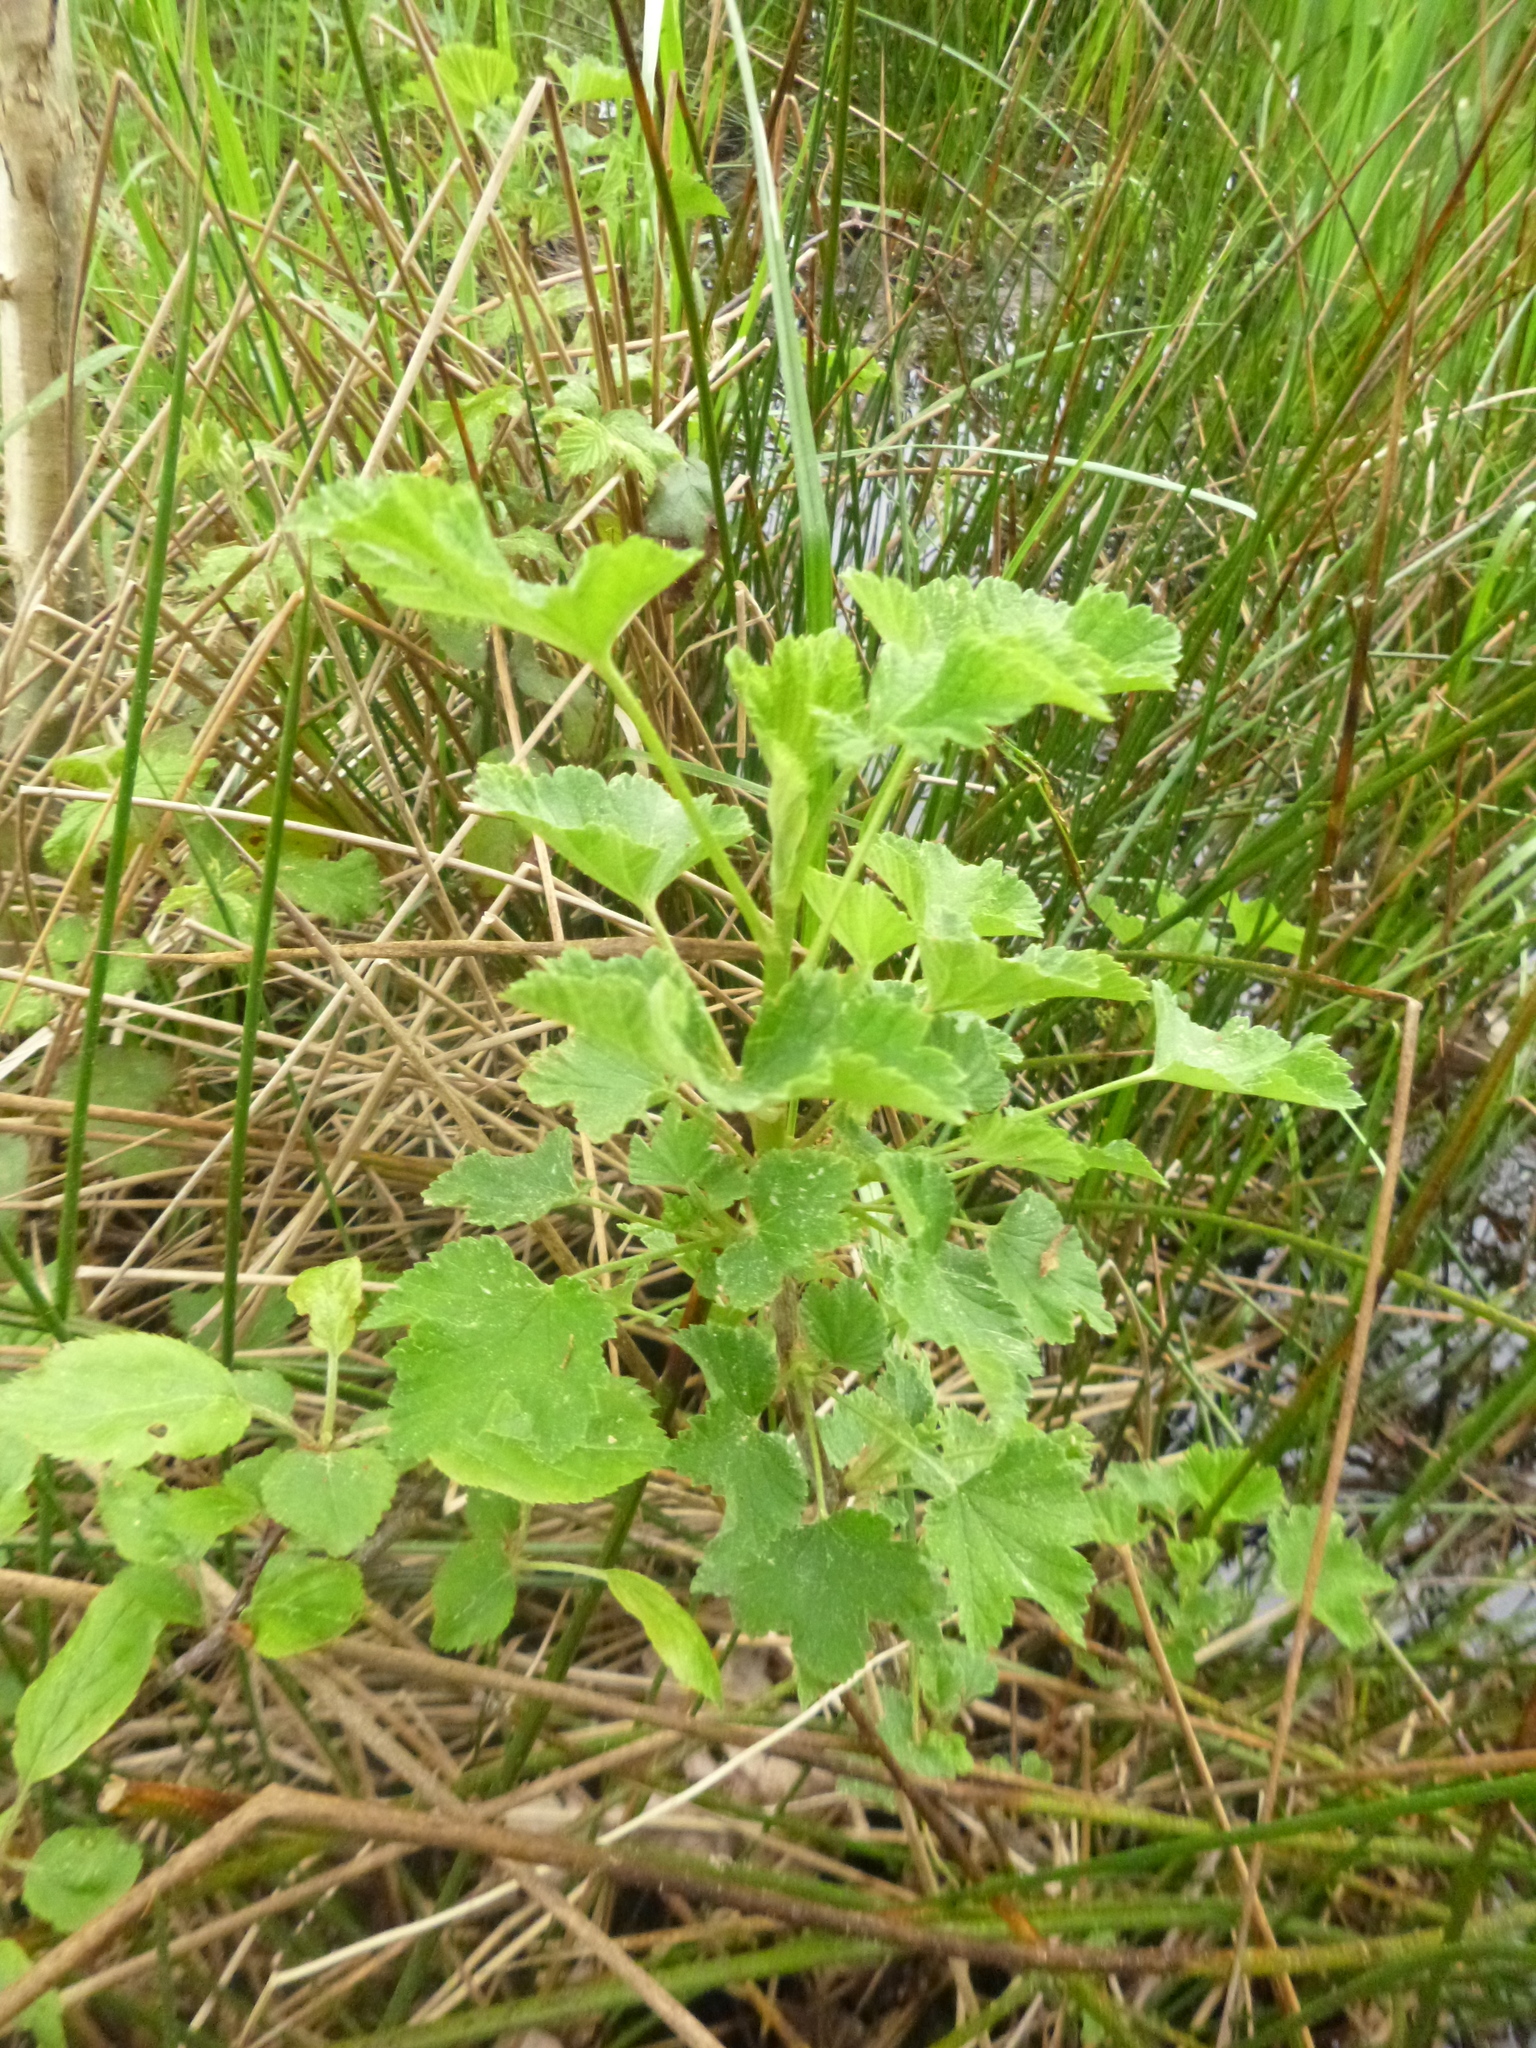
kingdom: Plantae
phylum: Tracheophyta
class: Magnoliopsida
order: Saxifragales
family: Grossulariaceae
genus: Ribes
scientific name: Ribes rubrum
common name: Red currant
